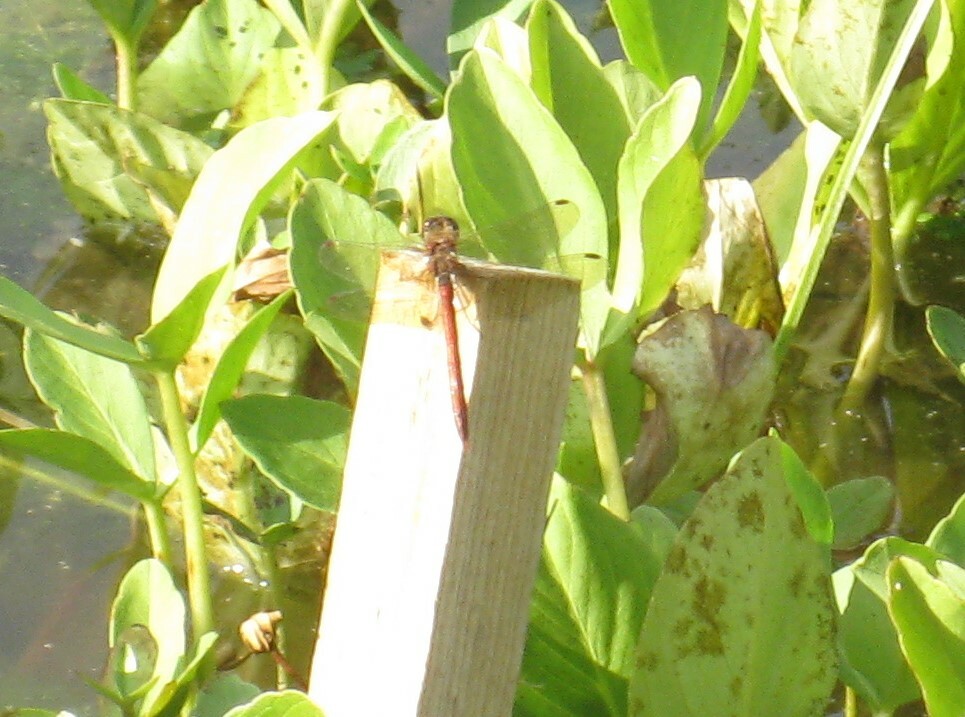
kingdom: Animalia
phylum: Arthropoda
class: Insecta
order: Odonata
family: Libellulidae
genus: Sympetrum
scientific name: Sympetrum striolatum
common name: Common darter
